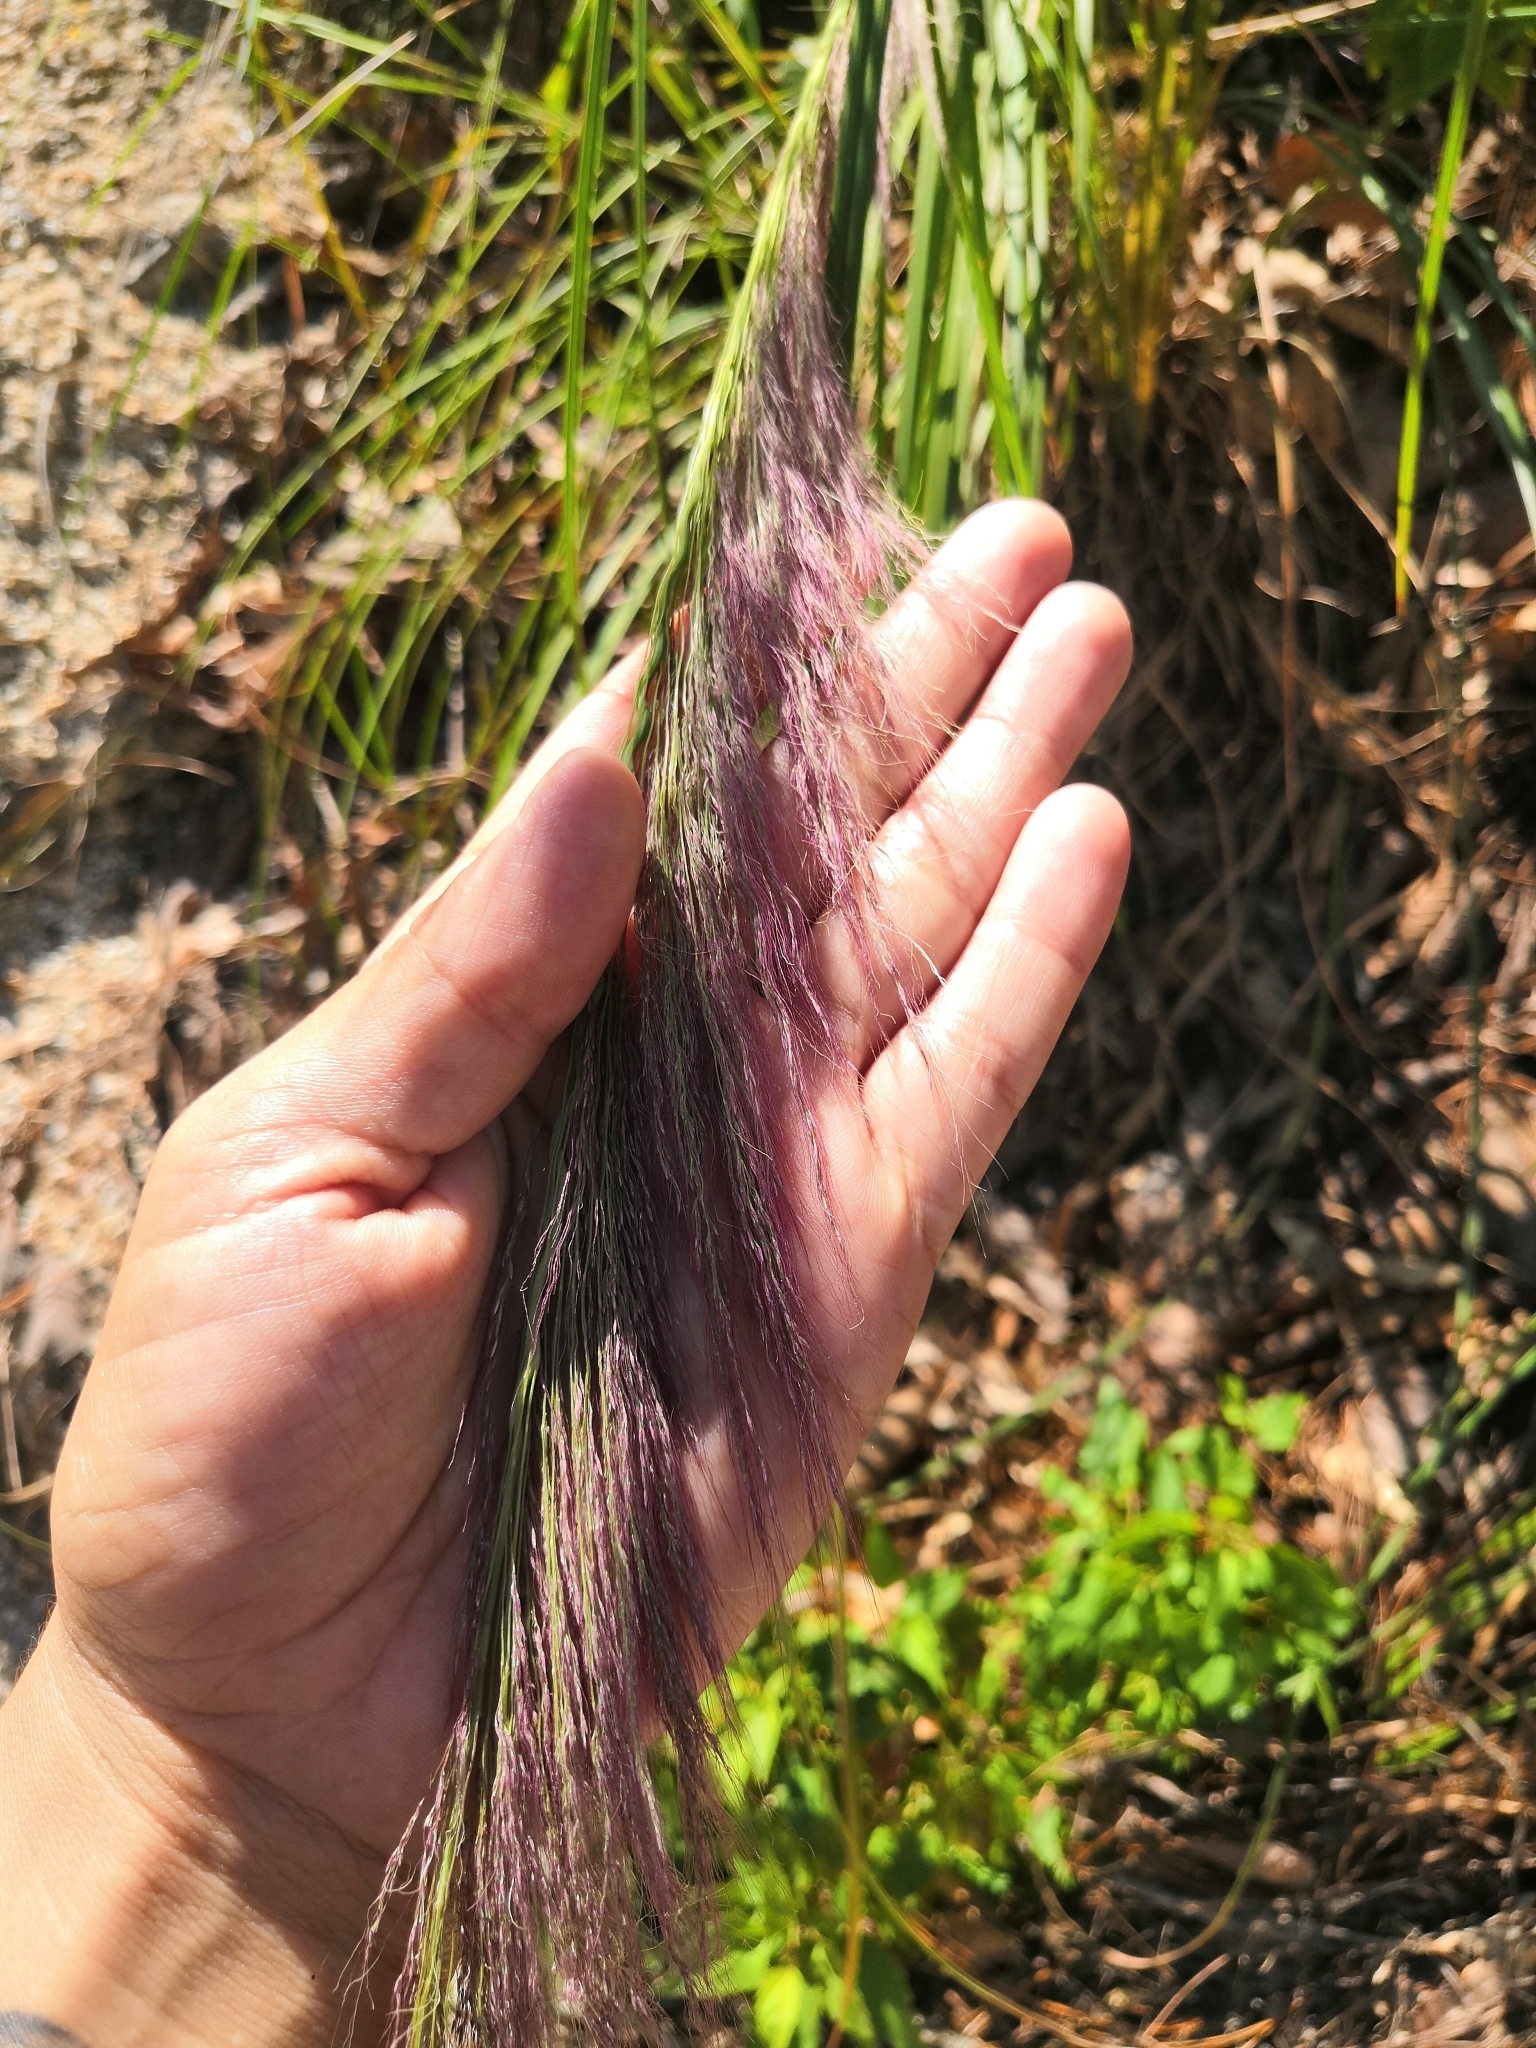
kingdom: Plantae
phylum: Tracheophyta
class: Liliopsida
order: Poales
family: Poaceae
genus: Muhlenbergia
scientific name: Muhlenbergia speciosa
